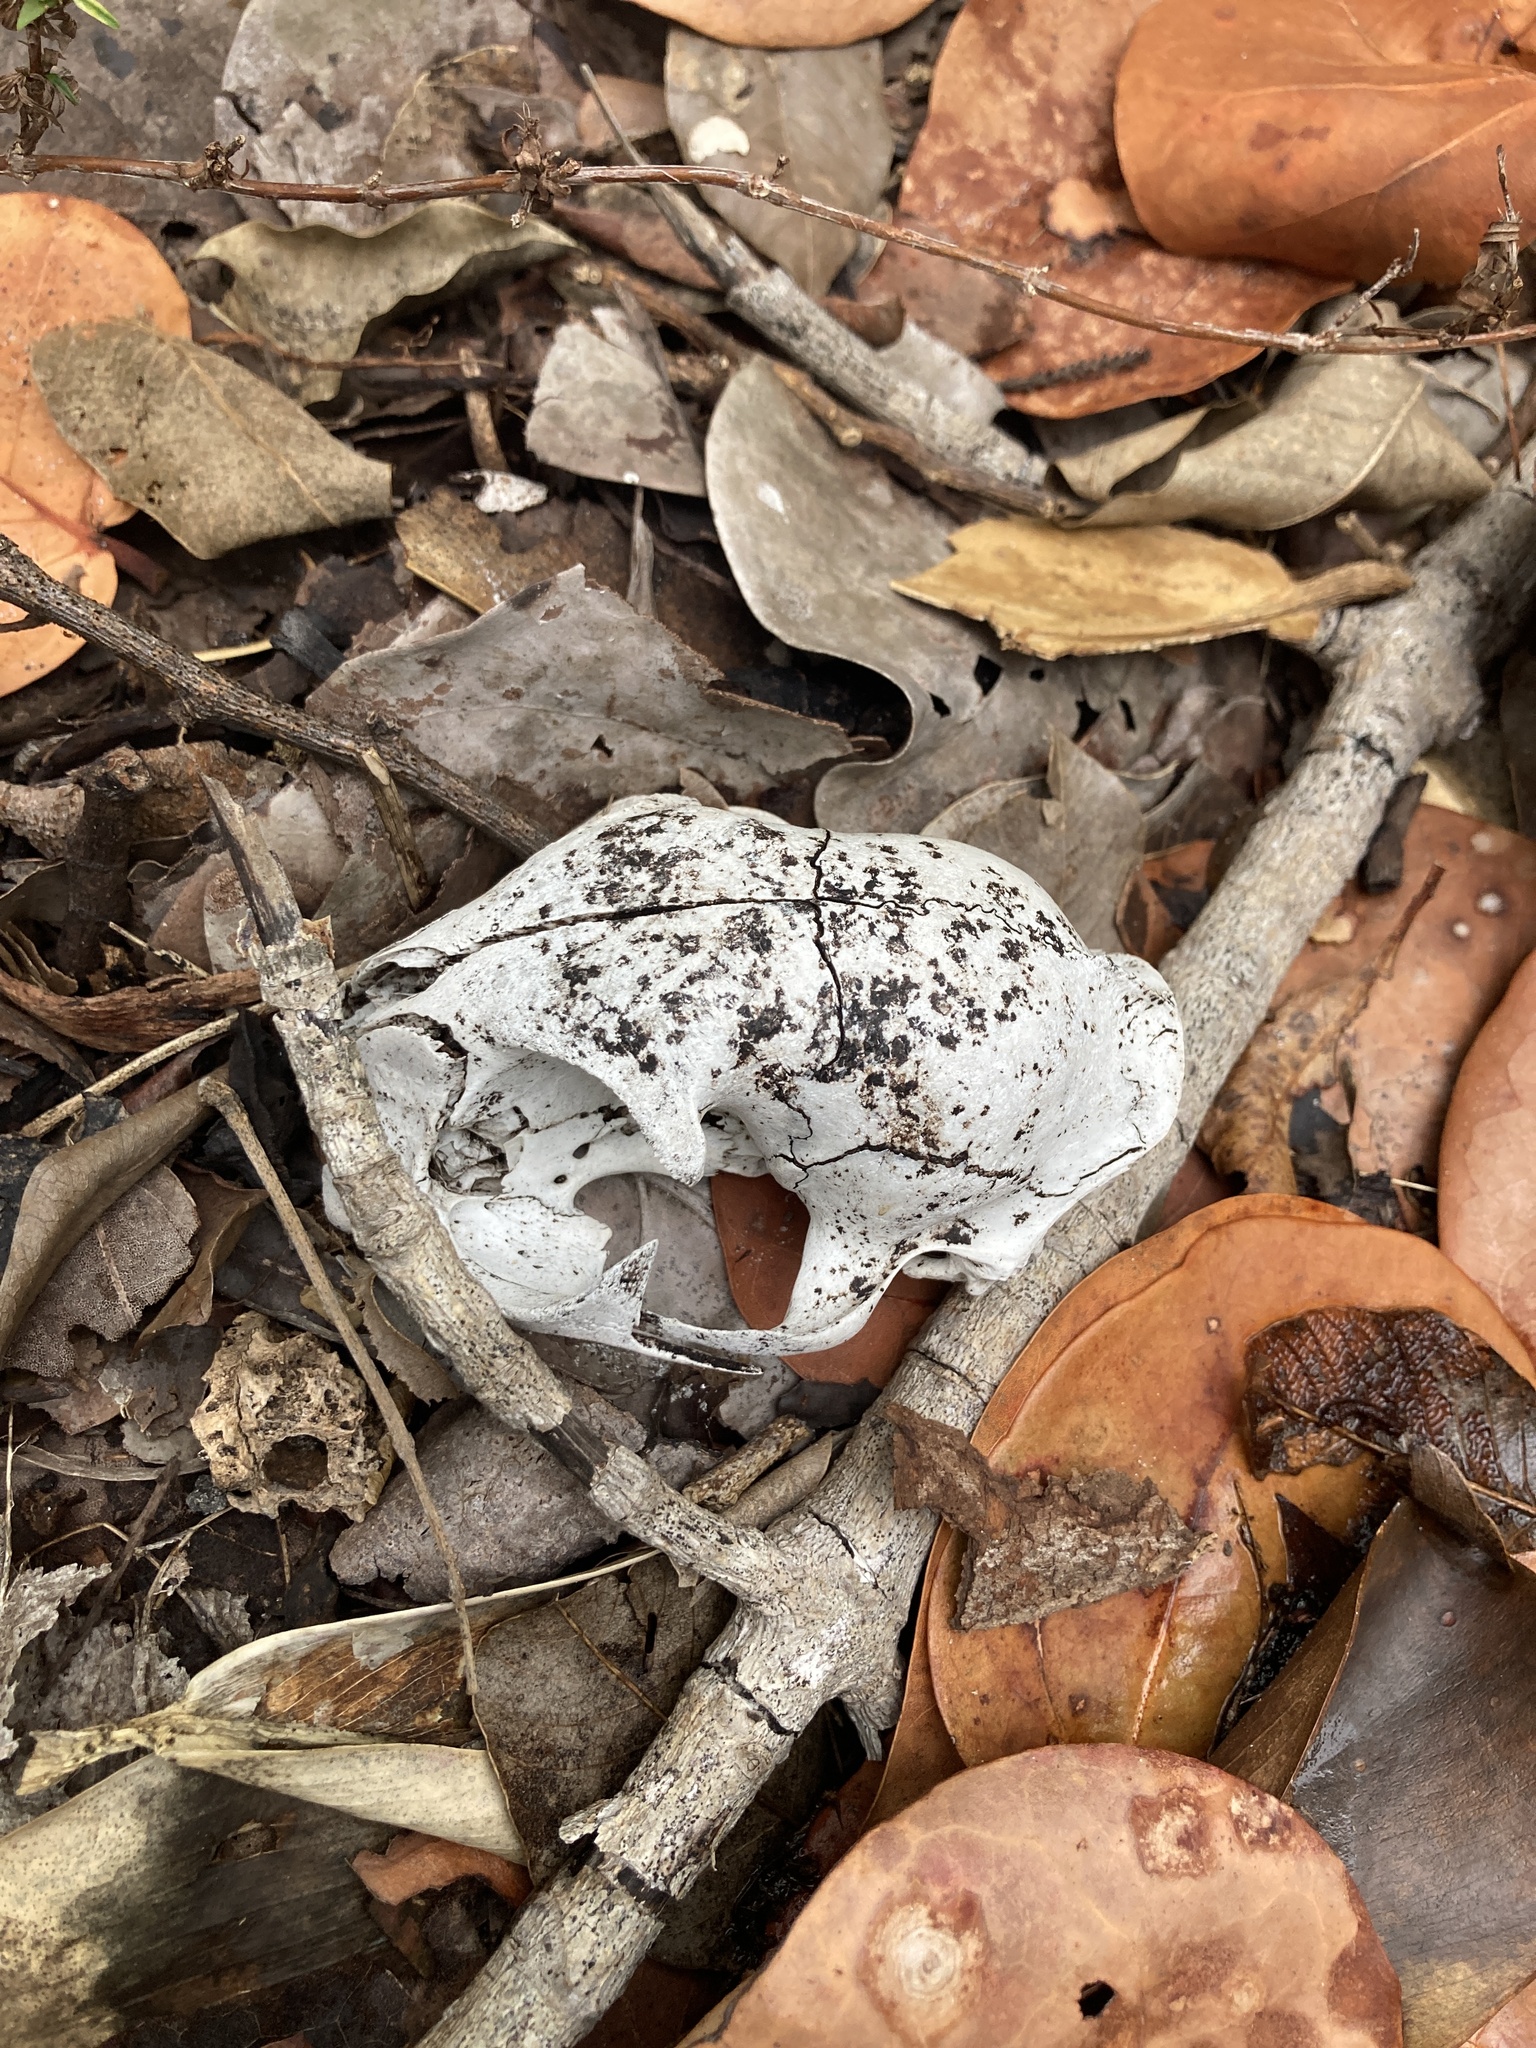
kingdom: Animalia
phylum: Chordata
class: Mammalia
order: Carnivora
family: Felidae
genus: Felis
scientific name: Felis catus
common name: Domestic cat
